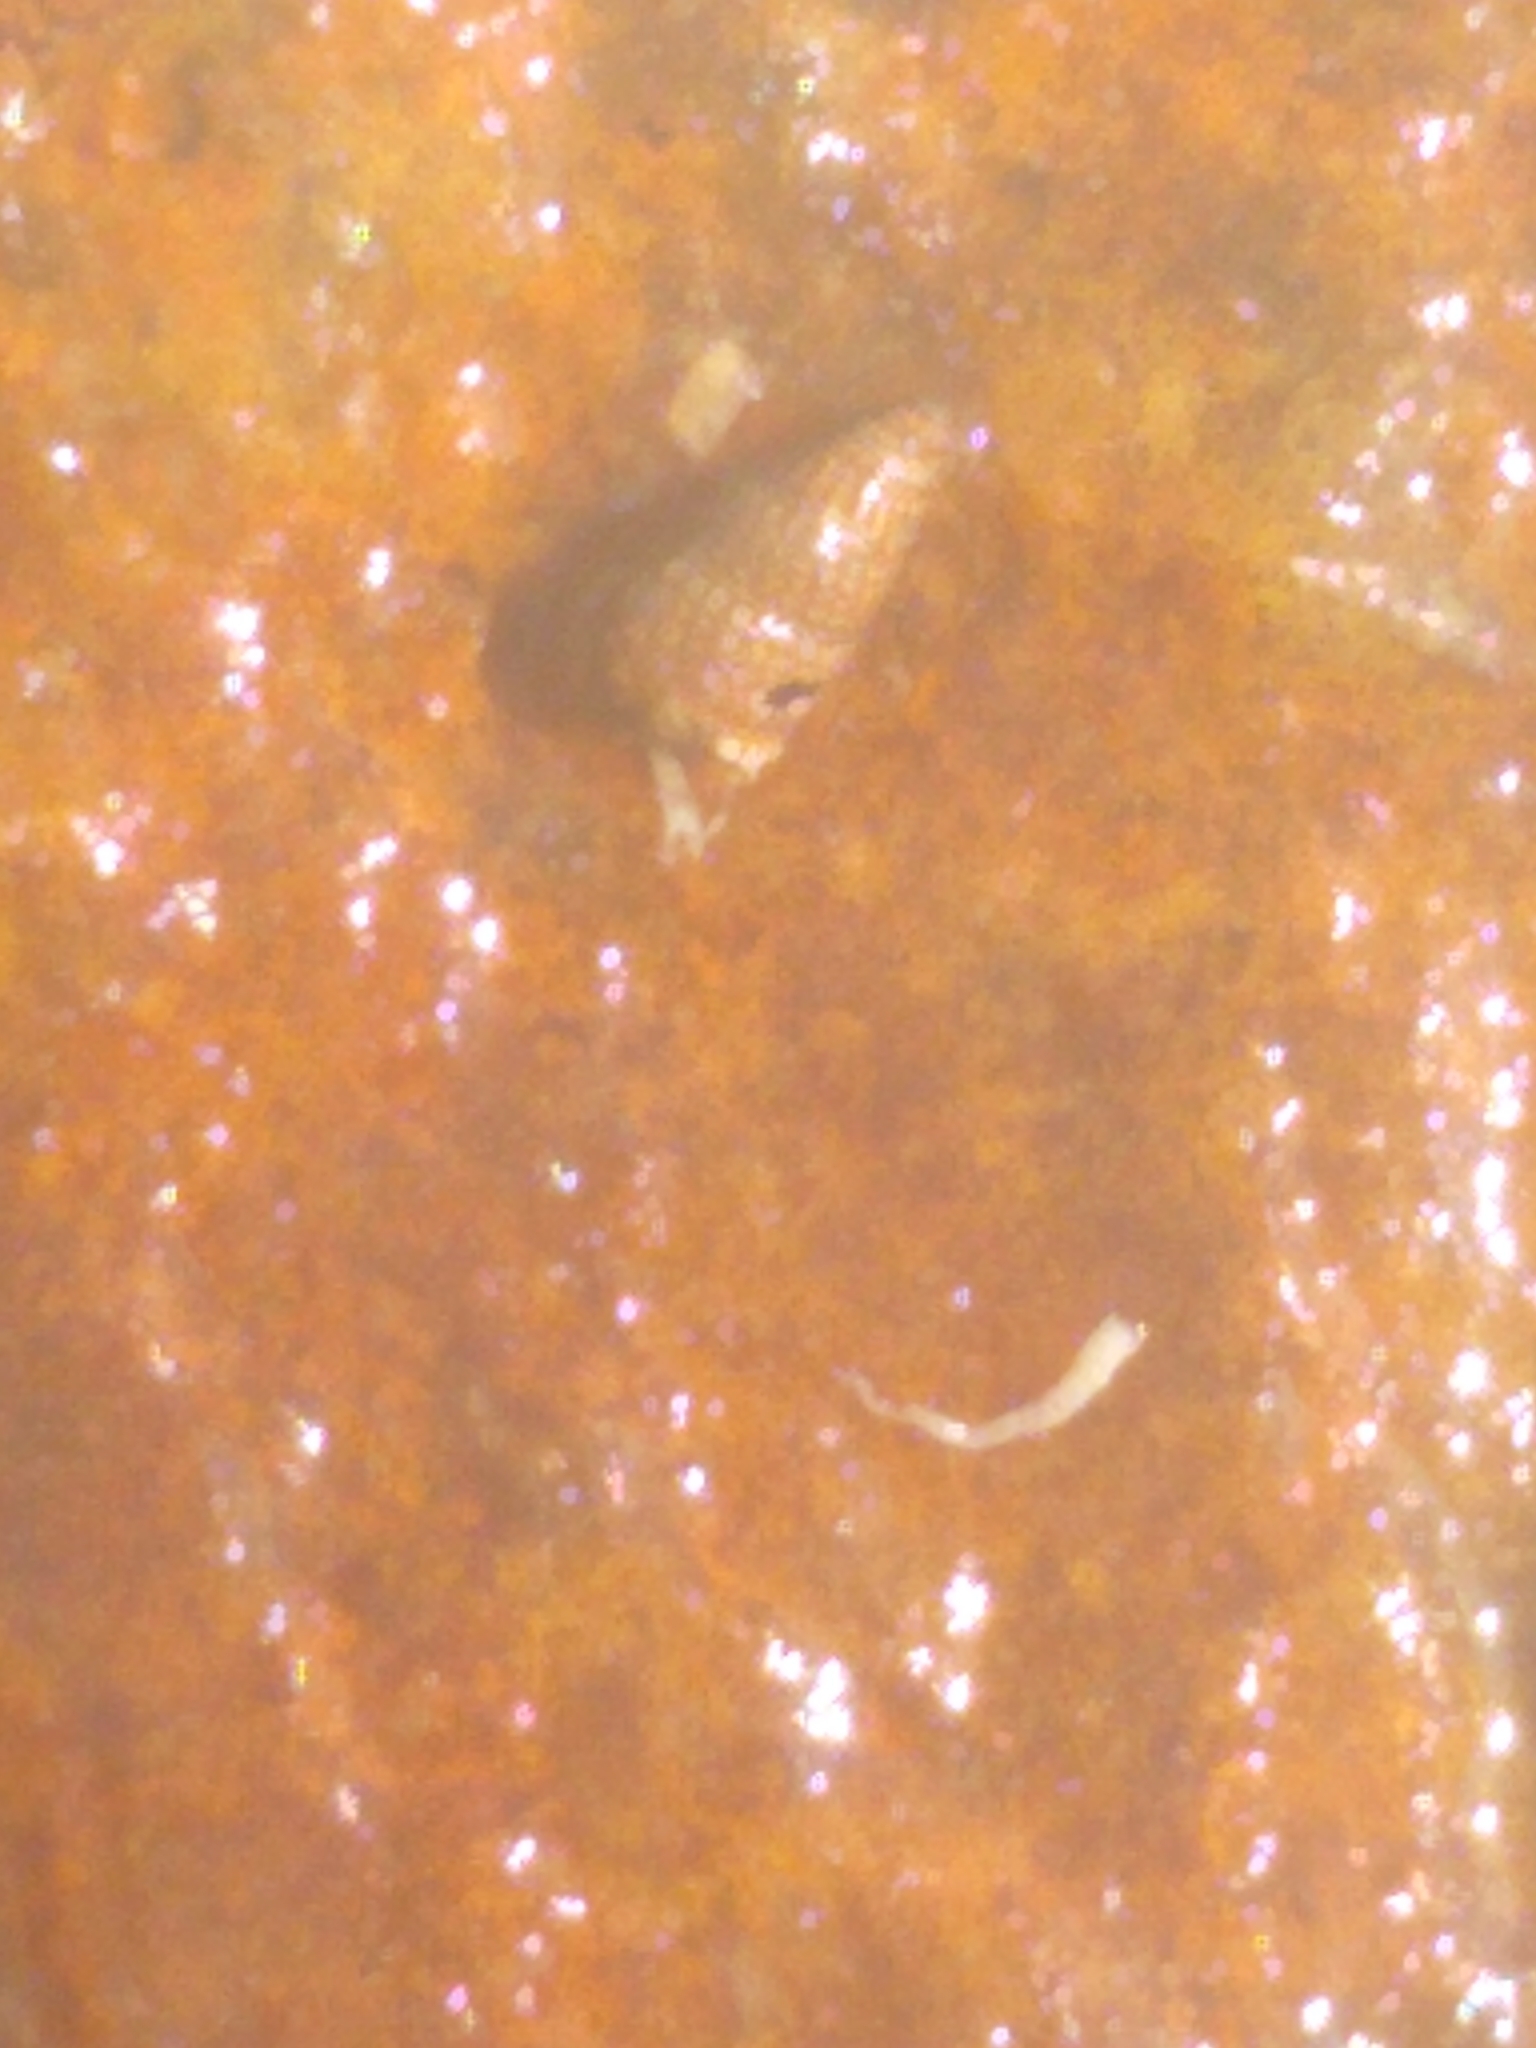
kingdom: Animalia
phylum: Mollusca
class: Gastropoda
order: Neogastropoda
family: Nassariidae
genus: Ilyanassa
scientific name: Ilyanassa trivittata
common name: Three-line mudsnail
